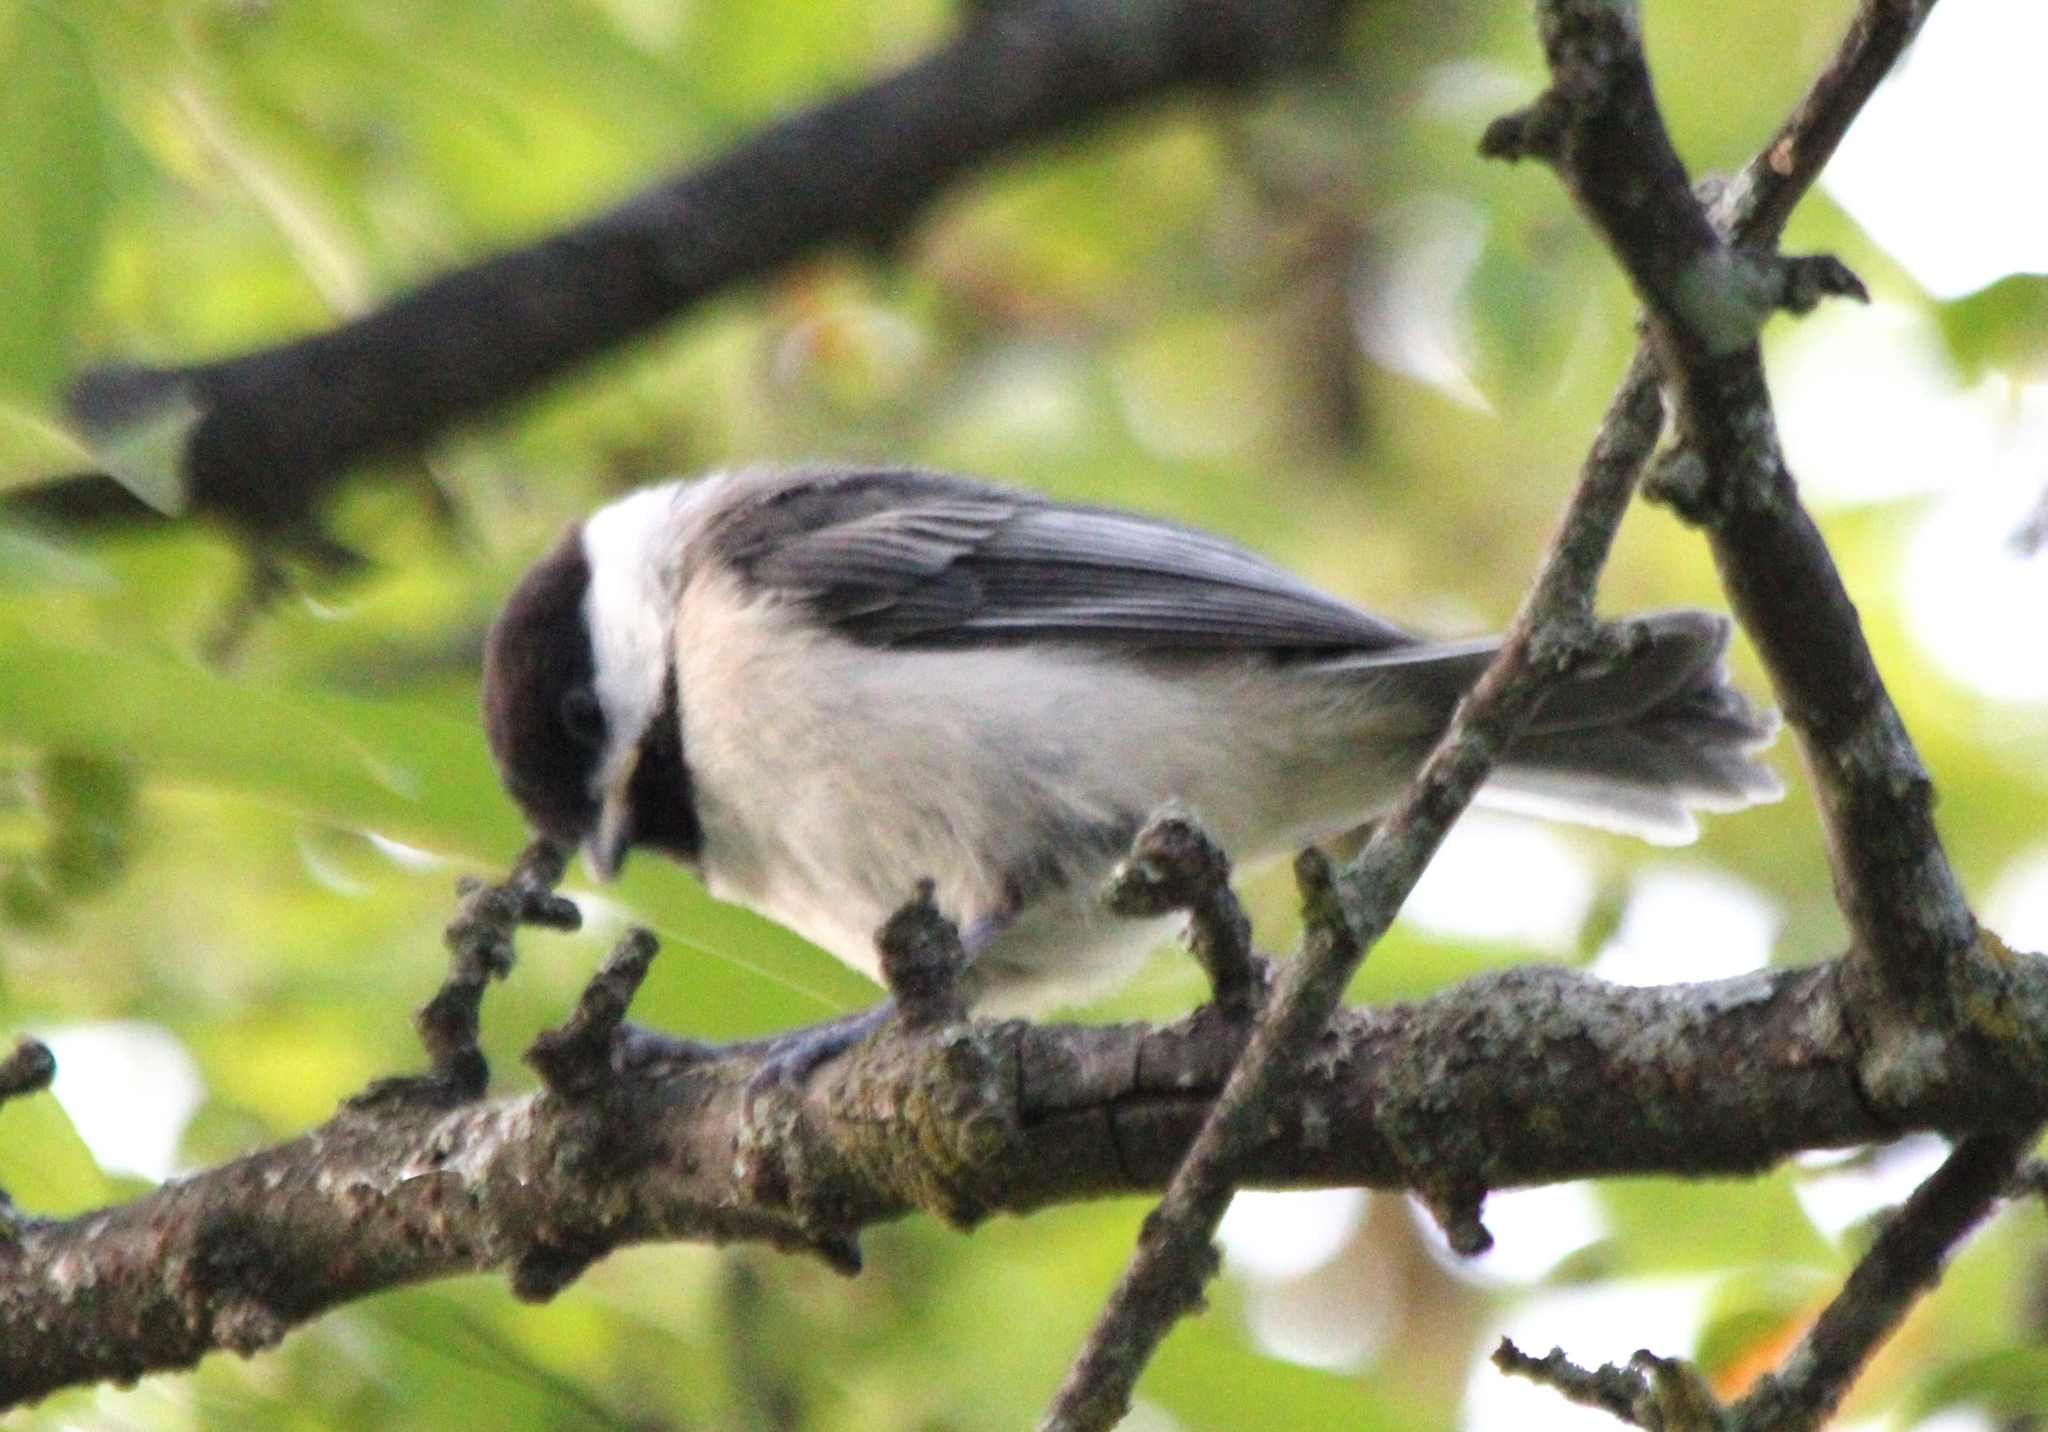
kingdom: Animalia
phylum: Chordata
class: Aves
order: Passeriformes
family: Paridae
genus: Poecile
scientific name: Poecile atricapillus
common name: Black-capped chickadee
